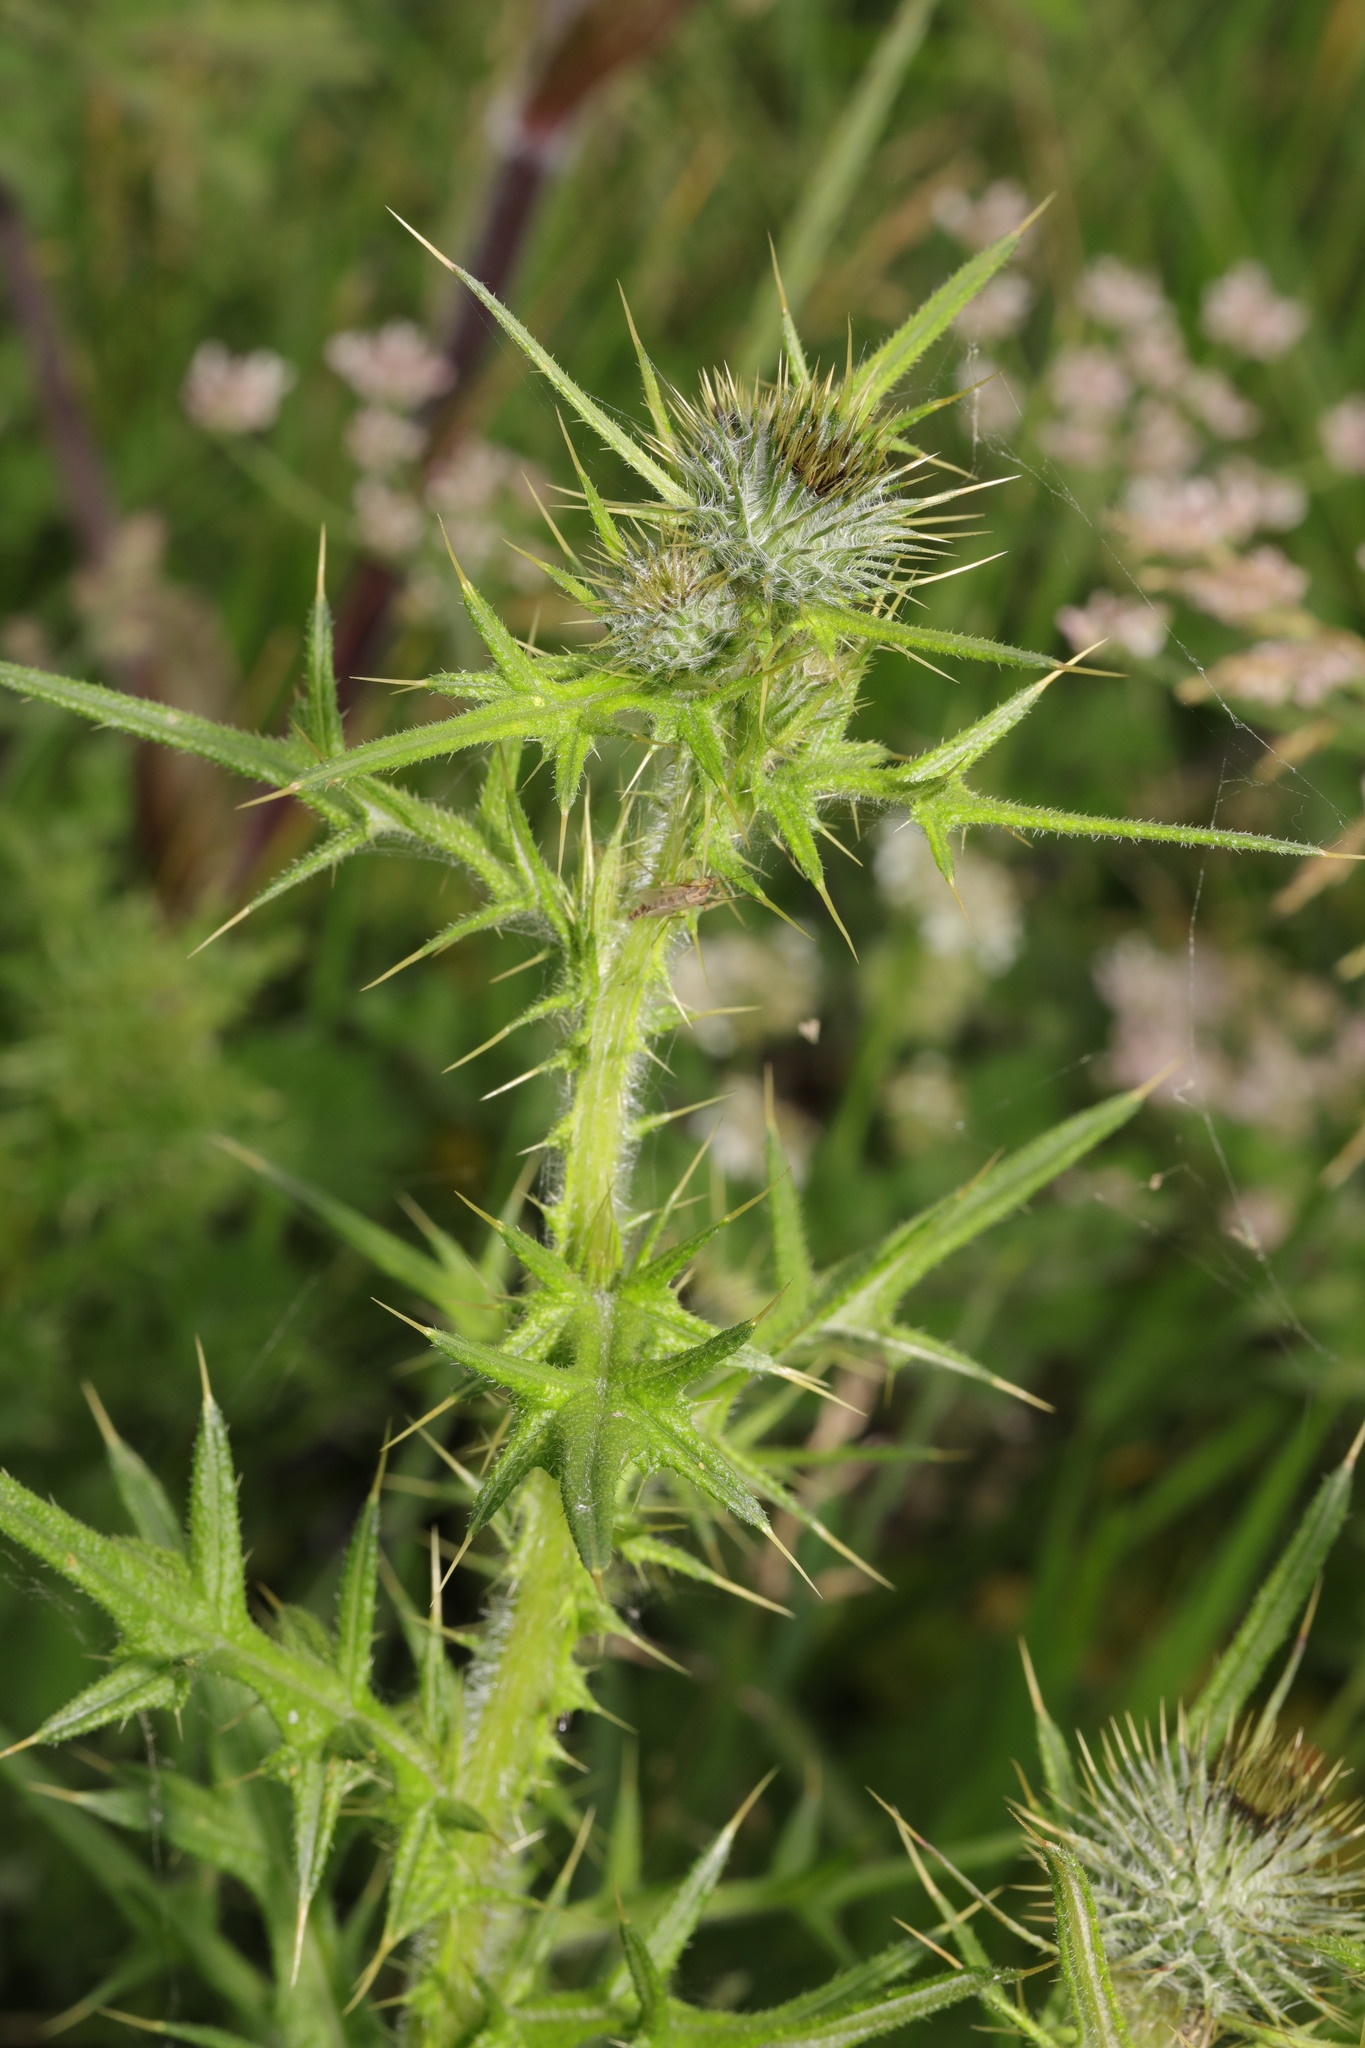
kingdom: Plantae
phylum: Tracheophyta
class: Magnoliopsida
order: Asterales
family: Asteraceae
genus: Cirsium
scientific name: Cirsium vulgare
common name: Bull thistle
